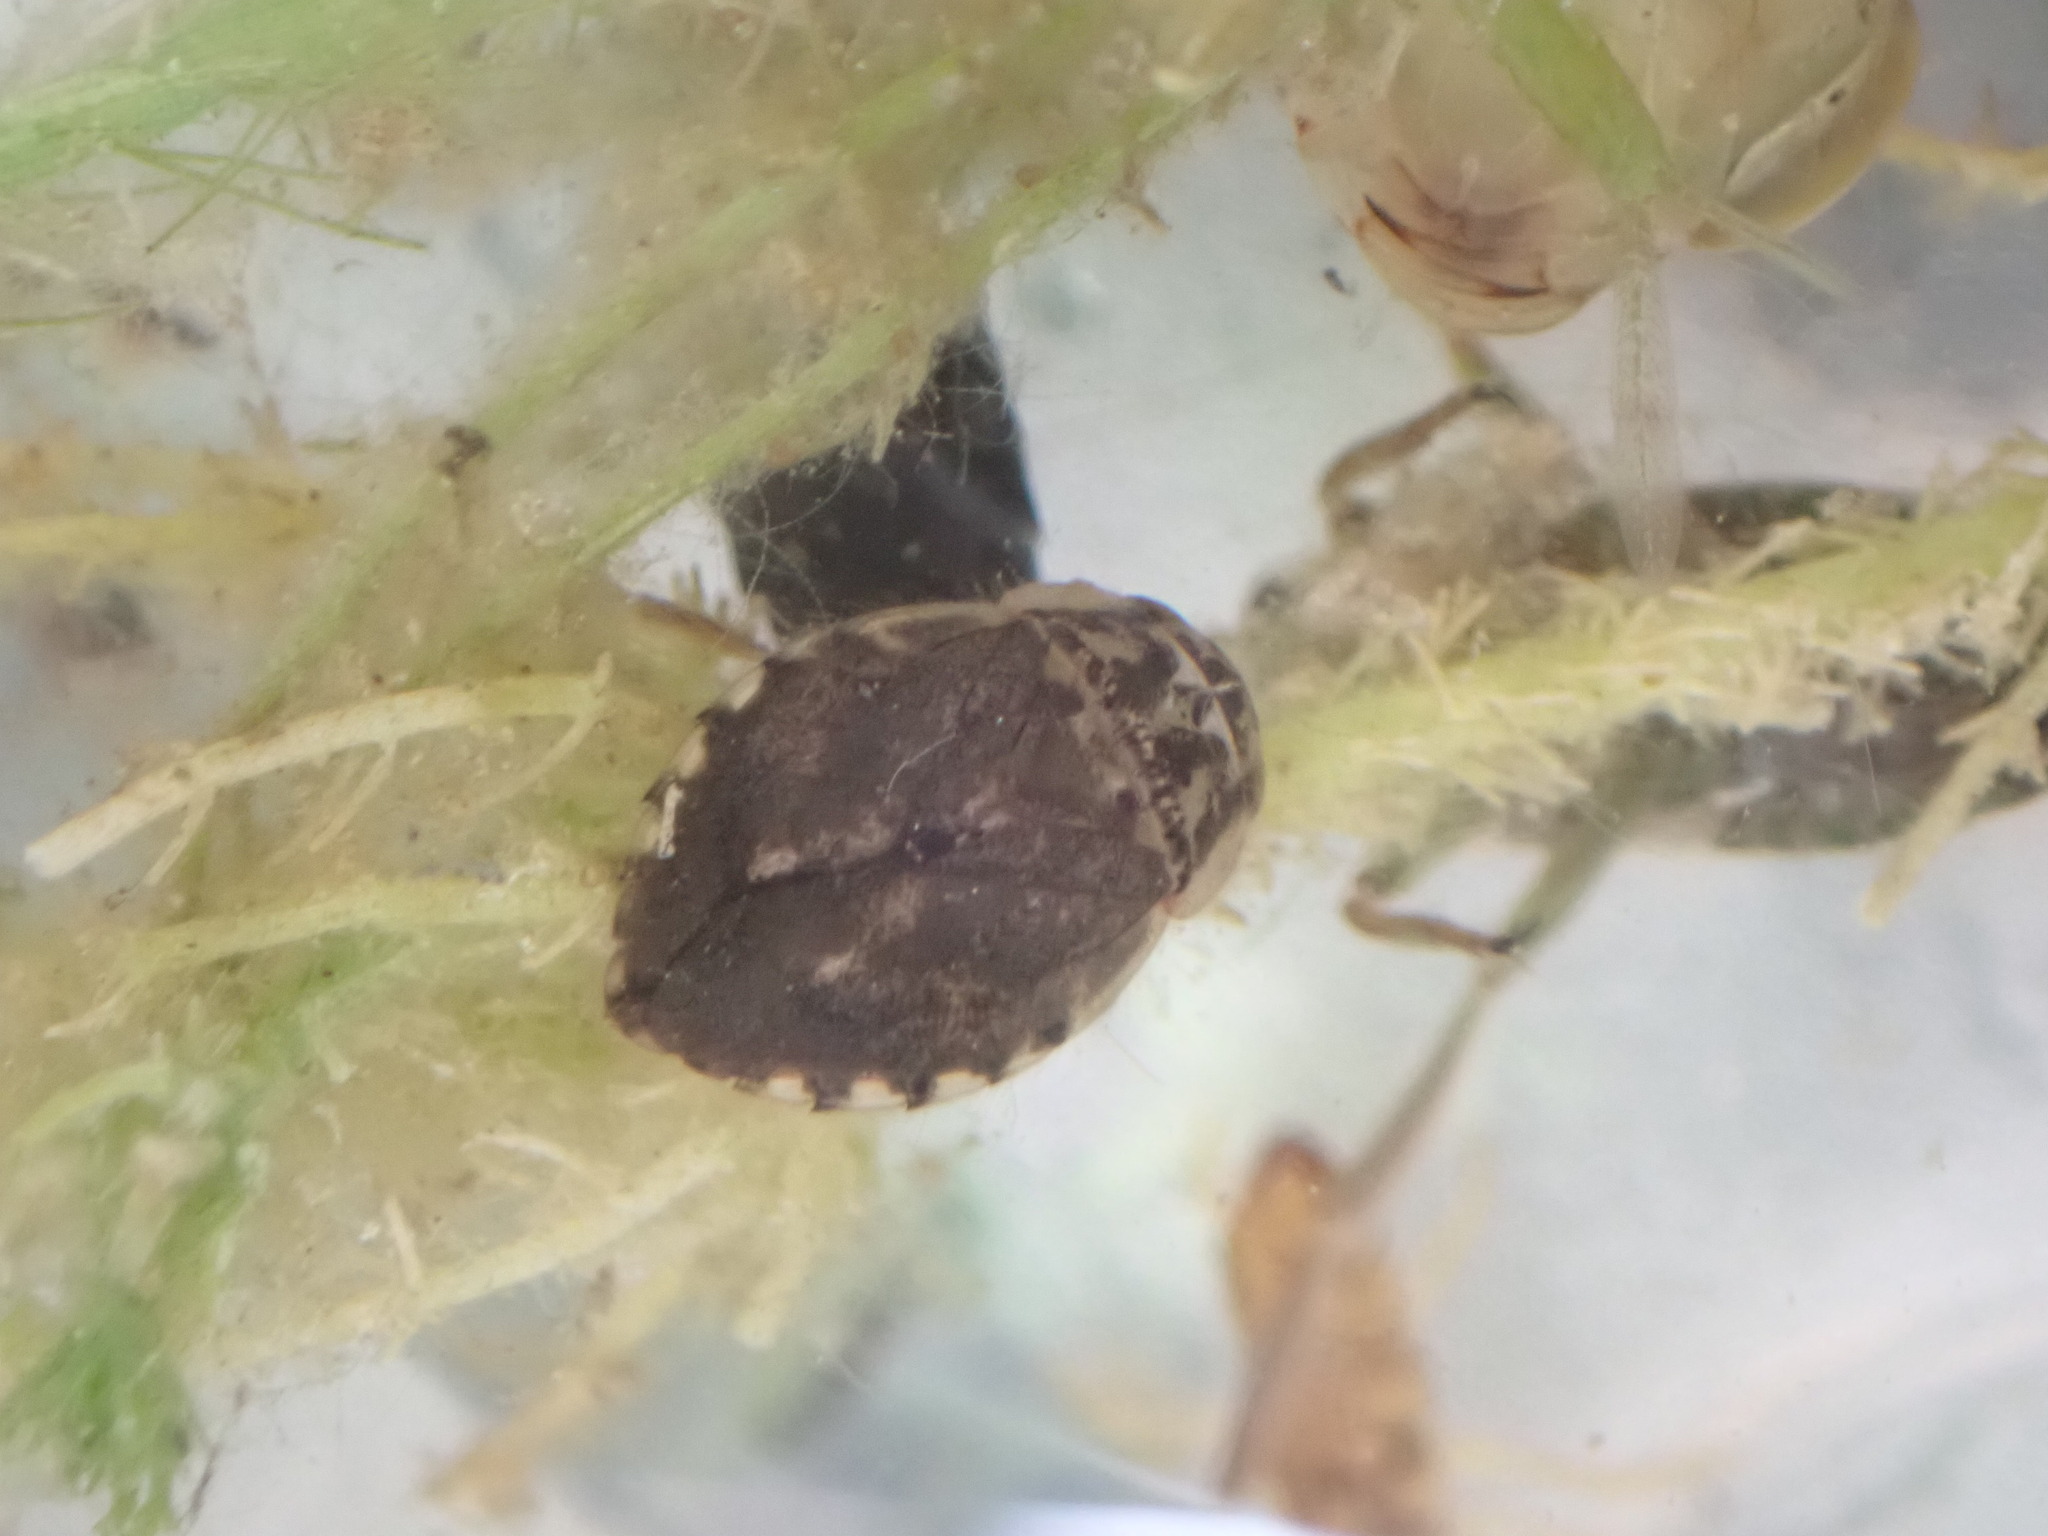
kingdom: Animalia
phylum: Arthropoda
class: Insecta
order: Hemiptera
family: Naucoridae
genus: Naucoris
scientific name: Naucoris maculatus
